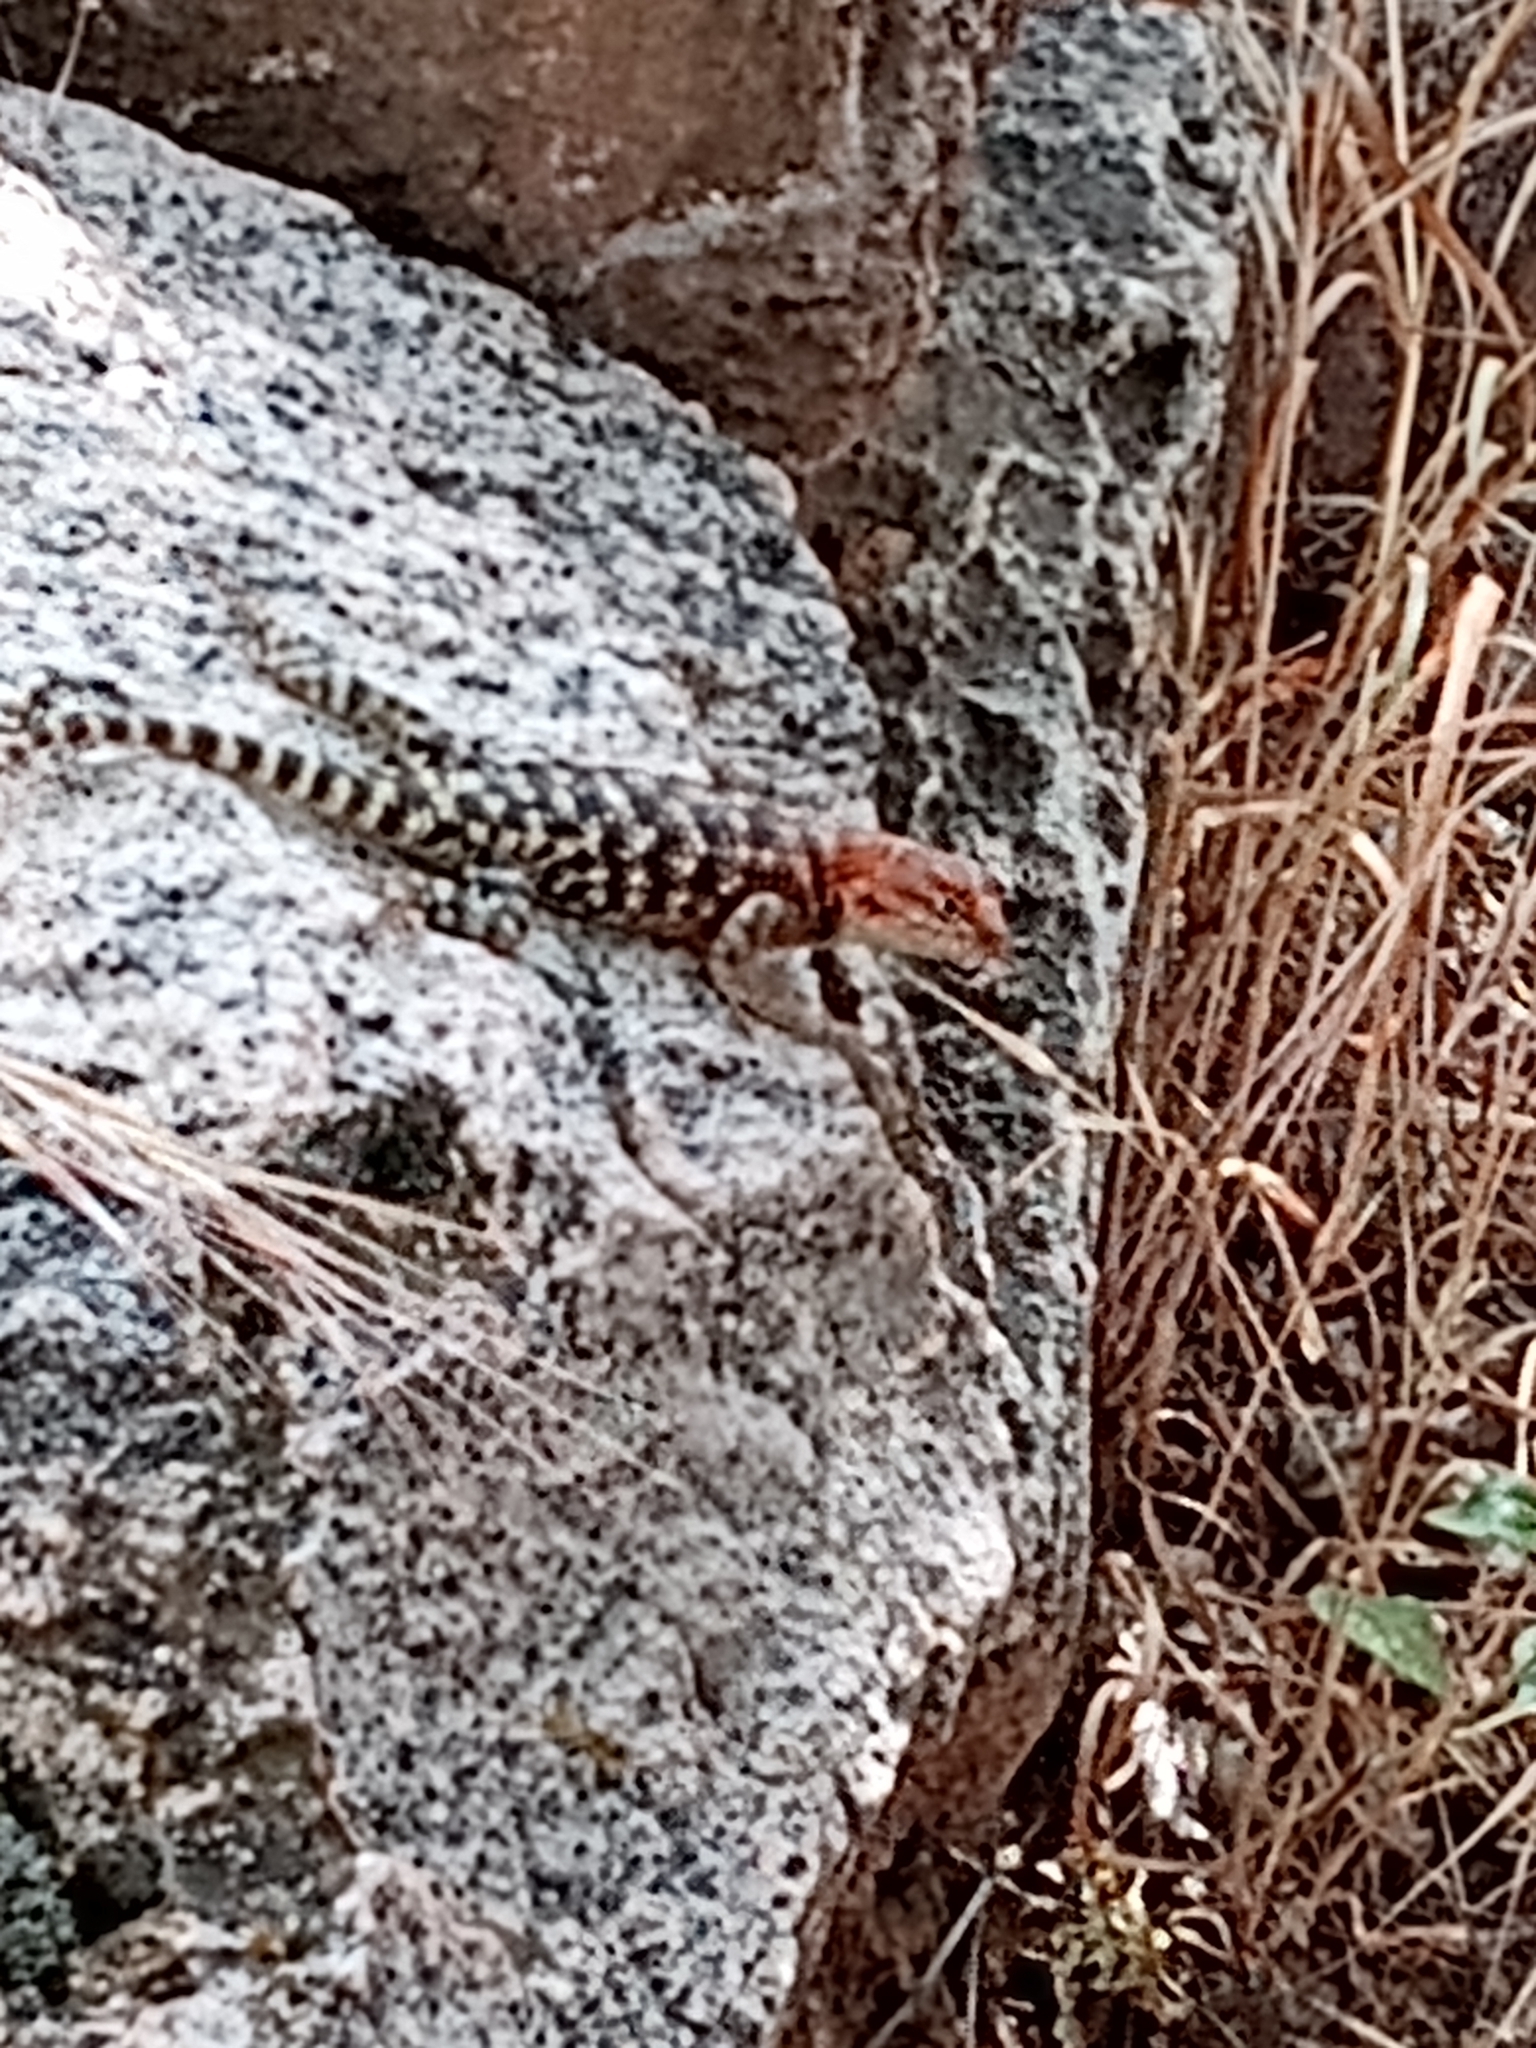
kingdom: Animalia
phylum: Chordata
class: Squamata
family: Phrynosomatidae
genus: Sceloporus
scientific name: Sceloporus magister
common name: Desert spiny lizard
